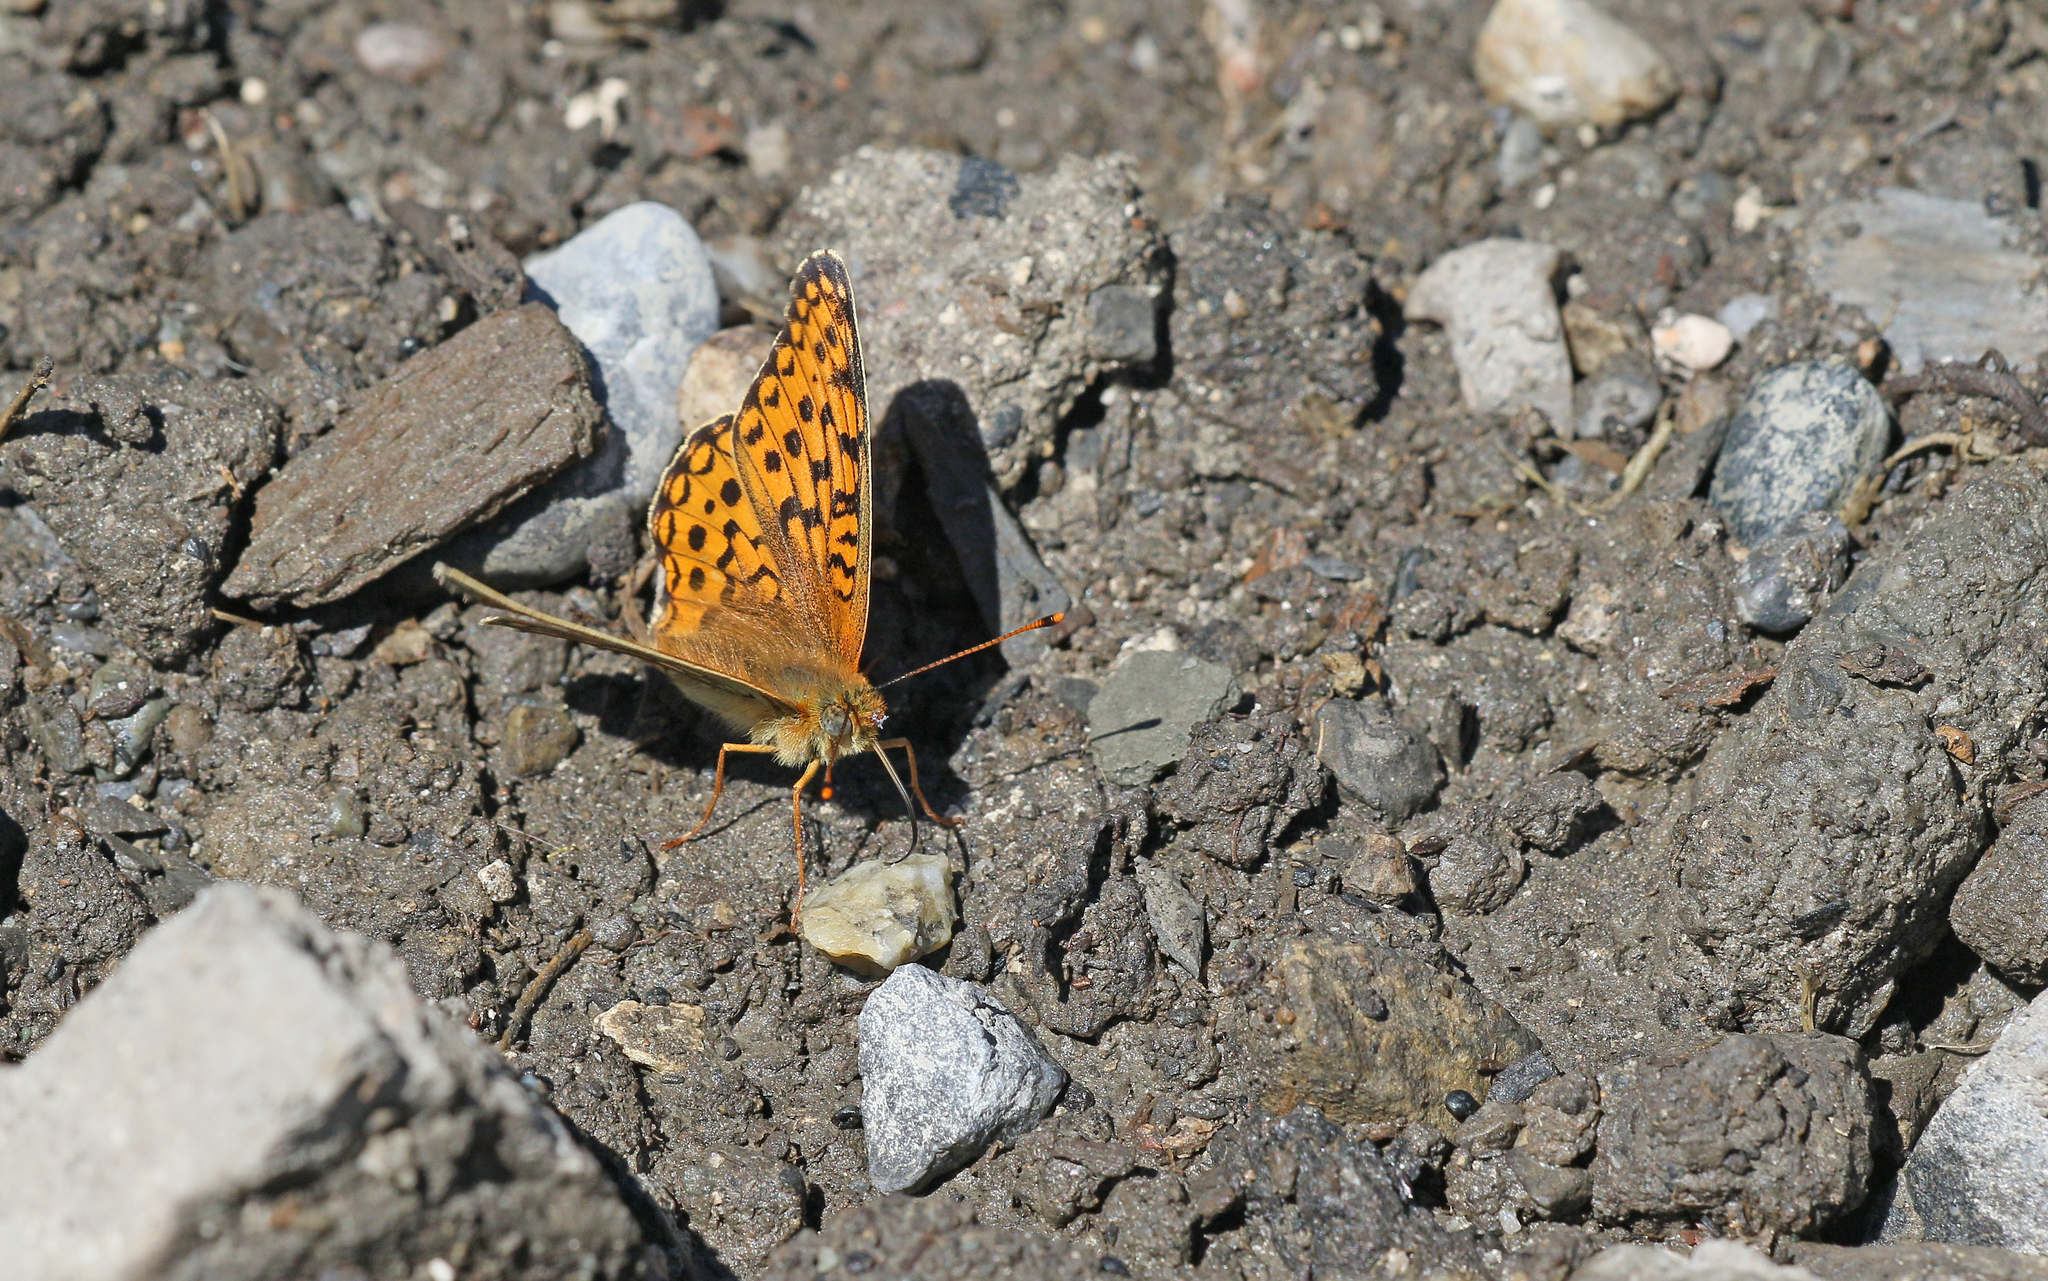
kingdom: Animalia
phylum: Arthropoda
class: Insecta
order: Lepidoptera
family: Nymphalidae
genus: Fabriciana
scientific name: Fabriciana niobe
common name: Niobe fritillary
